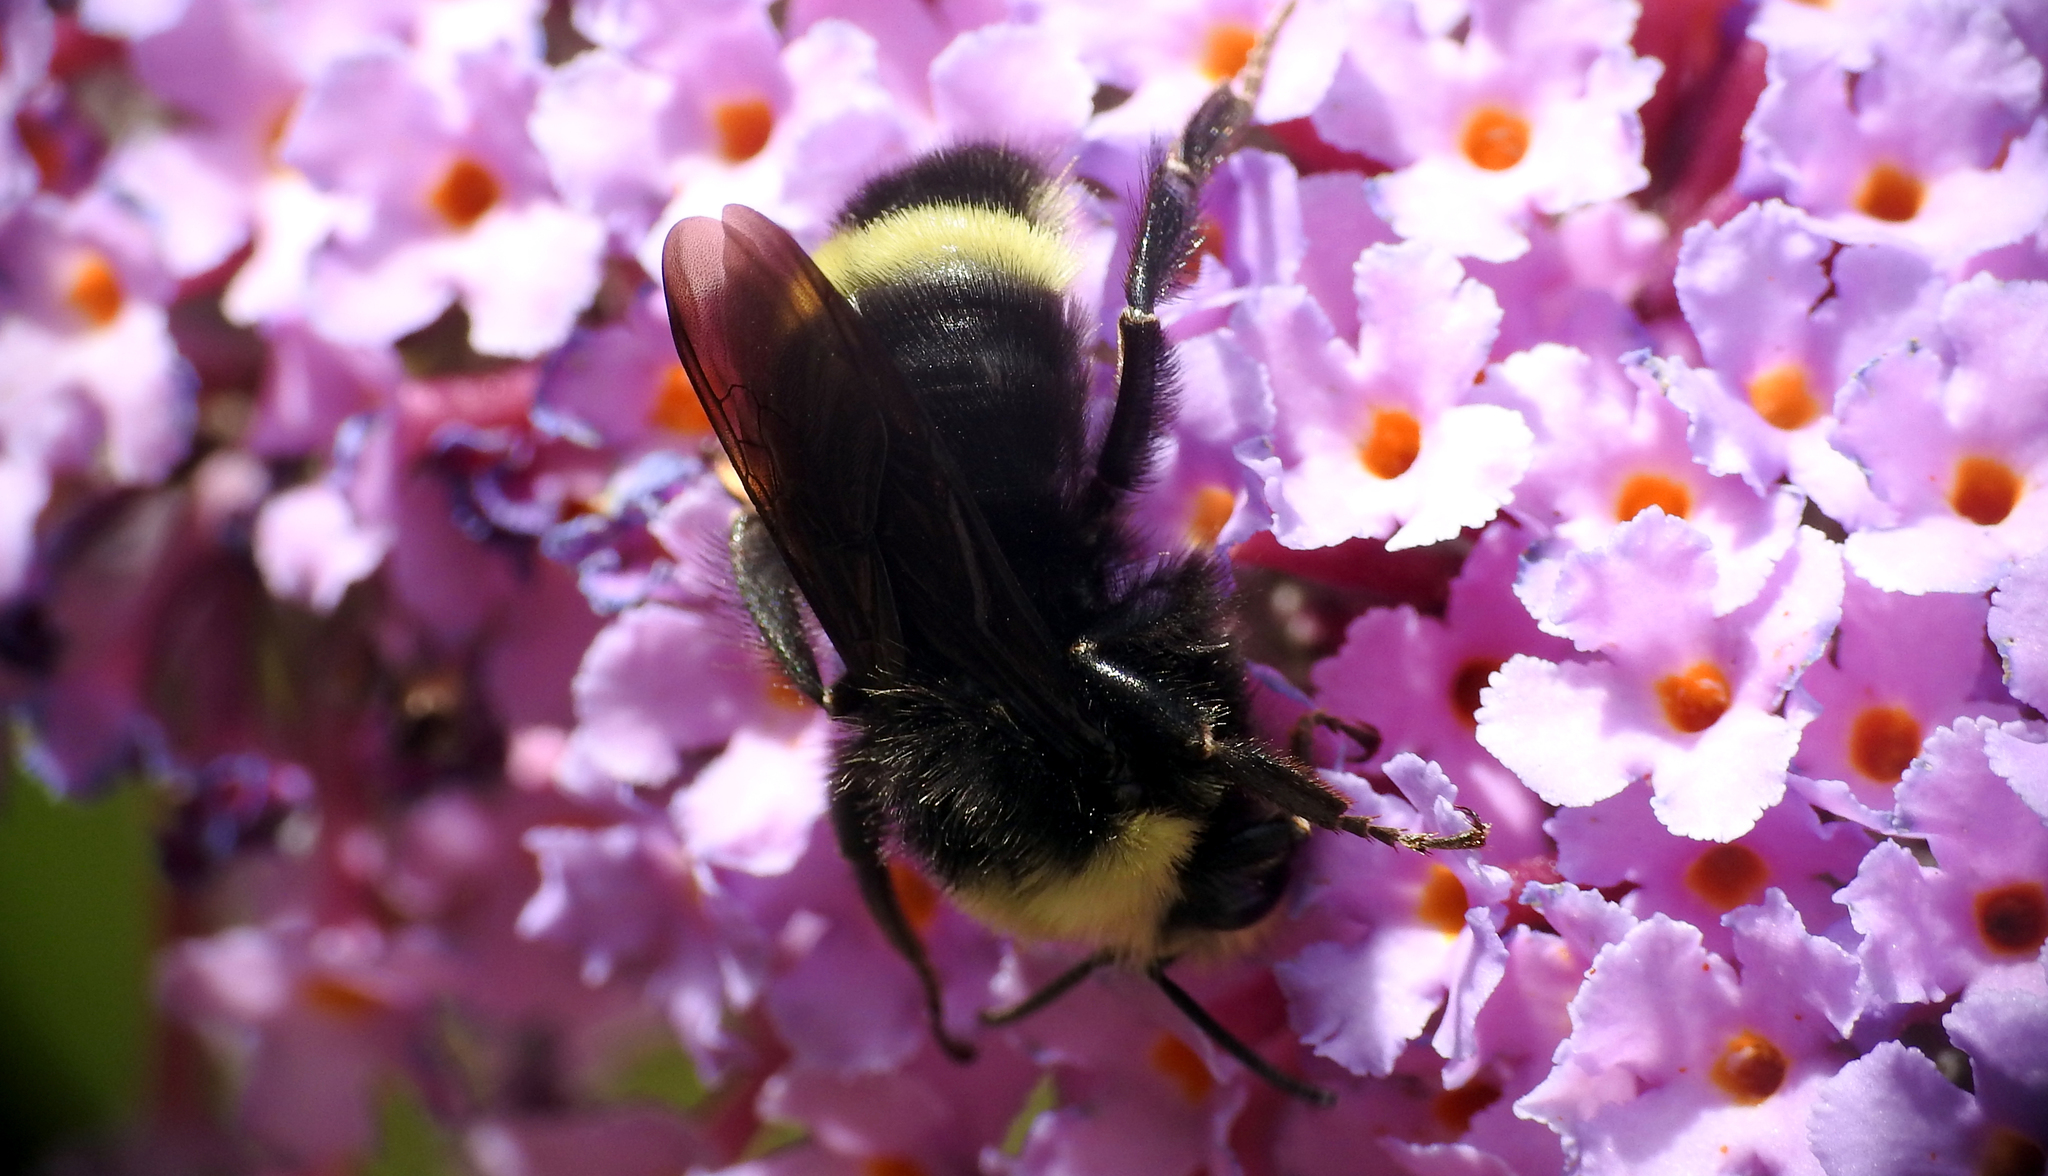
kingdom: Animalia
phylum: Arthropoda
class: Insecta
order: Hymenoptera
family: Apidae
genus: Bombus
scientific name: Bombus vosnesenskii
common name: Vosnesensky bumble bee
